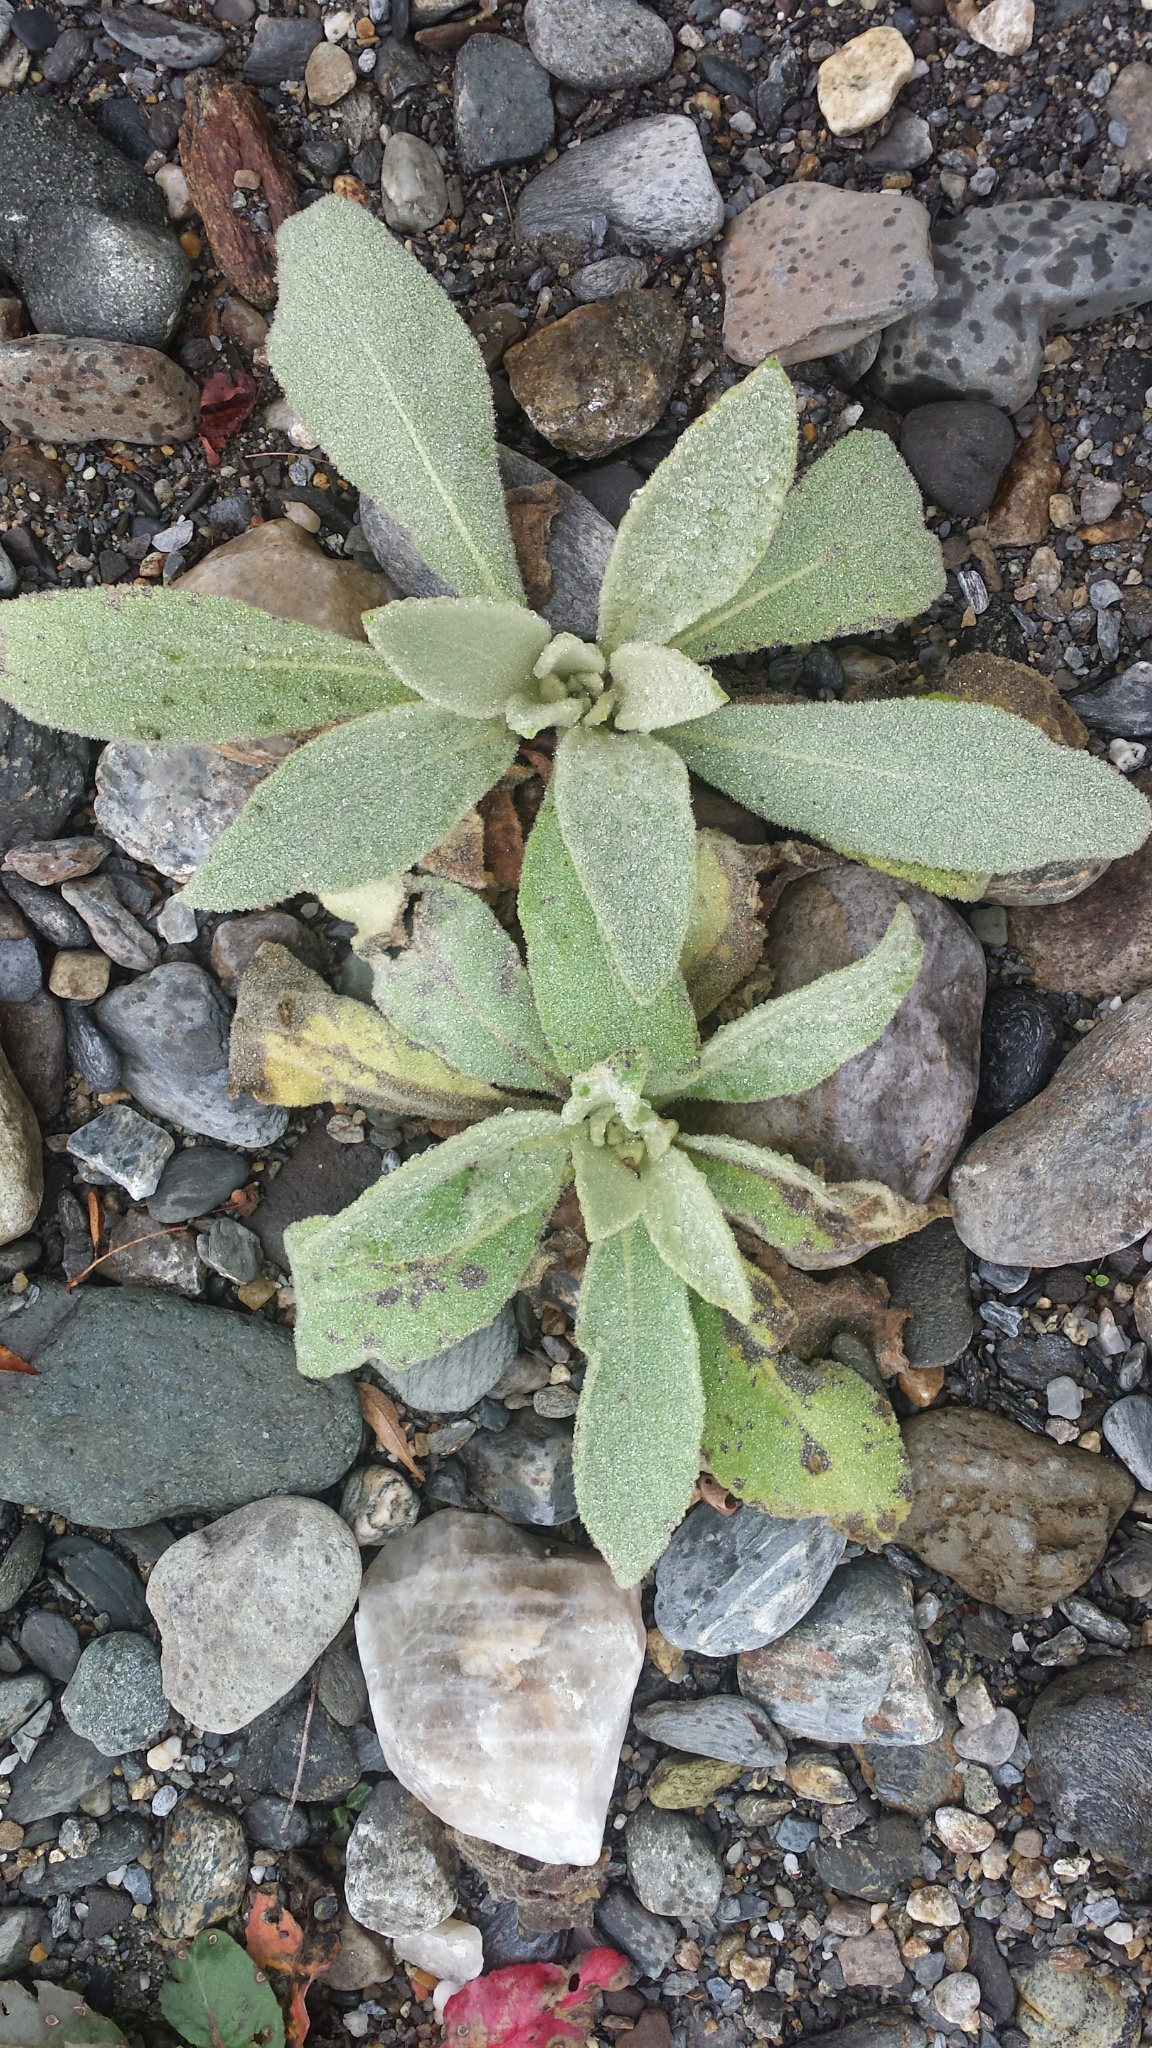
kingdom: Plantae
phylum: Tracheophyta
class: Magnoliopsida
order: Lamiales
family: Scrophulariaceae
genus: Verbascum
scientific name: Verbascum thapsus
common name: Common mullein
